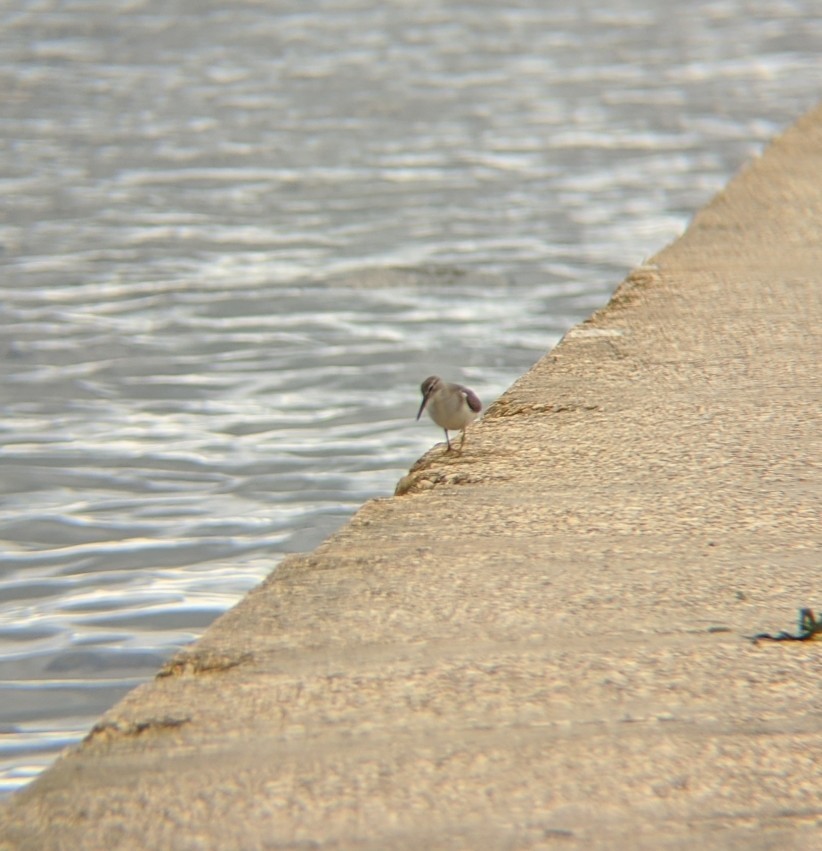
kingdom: Animalia
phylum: Chordata
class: Aves
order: Charadriiformes
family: Scolopacidae
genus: Actitis
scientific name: Actitis macularius
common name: Spotted sandpiper
